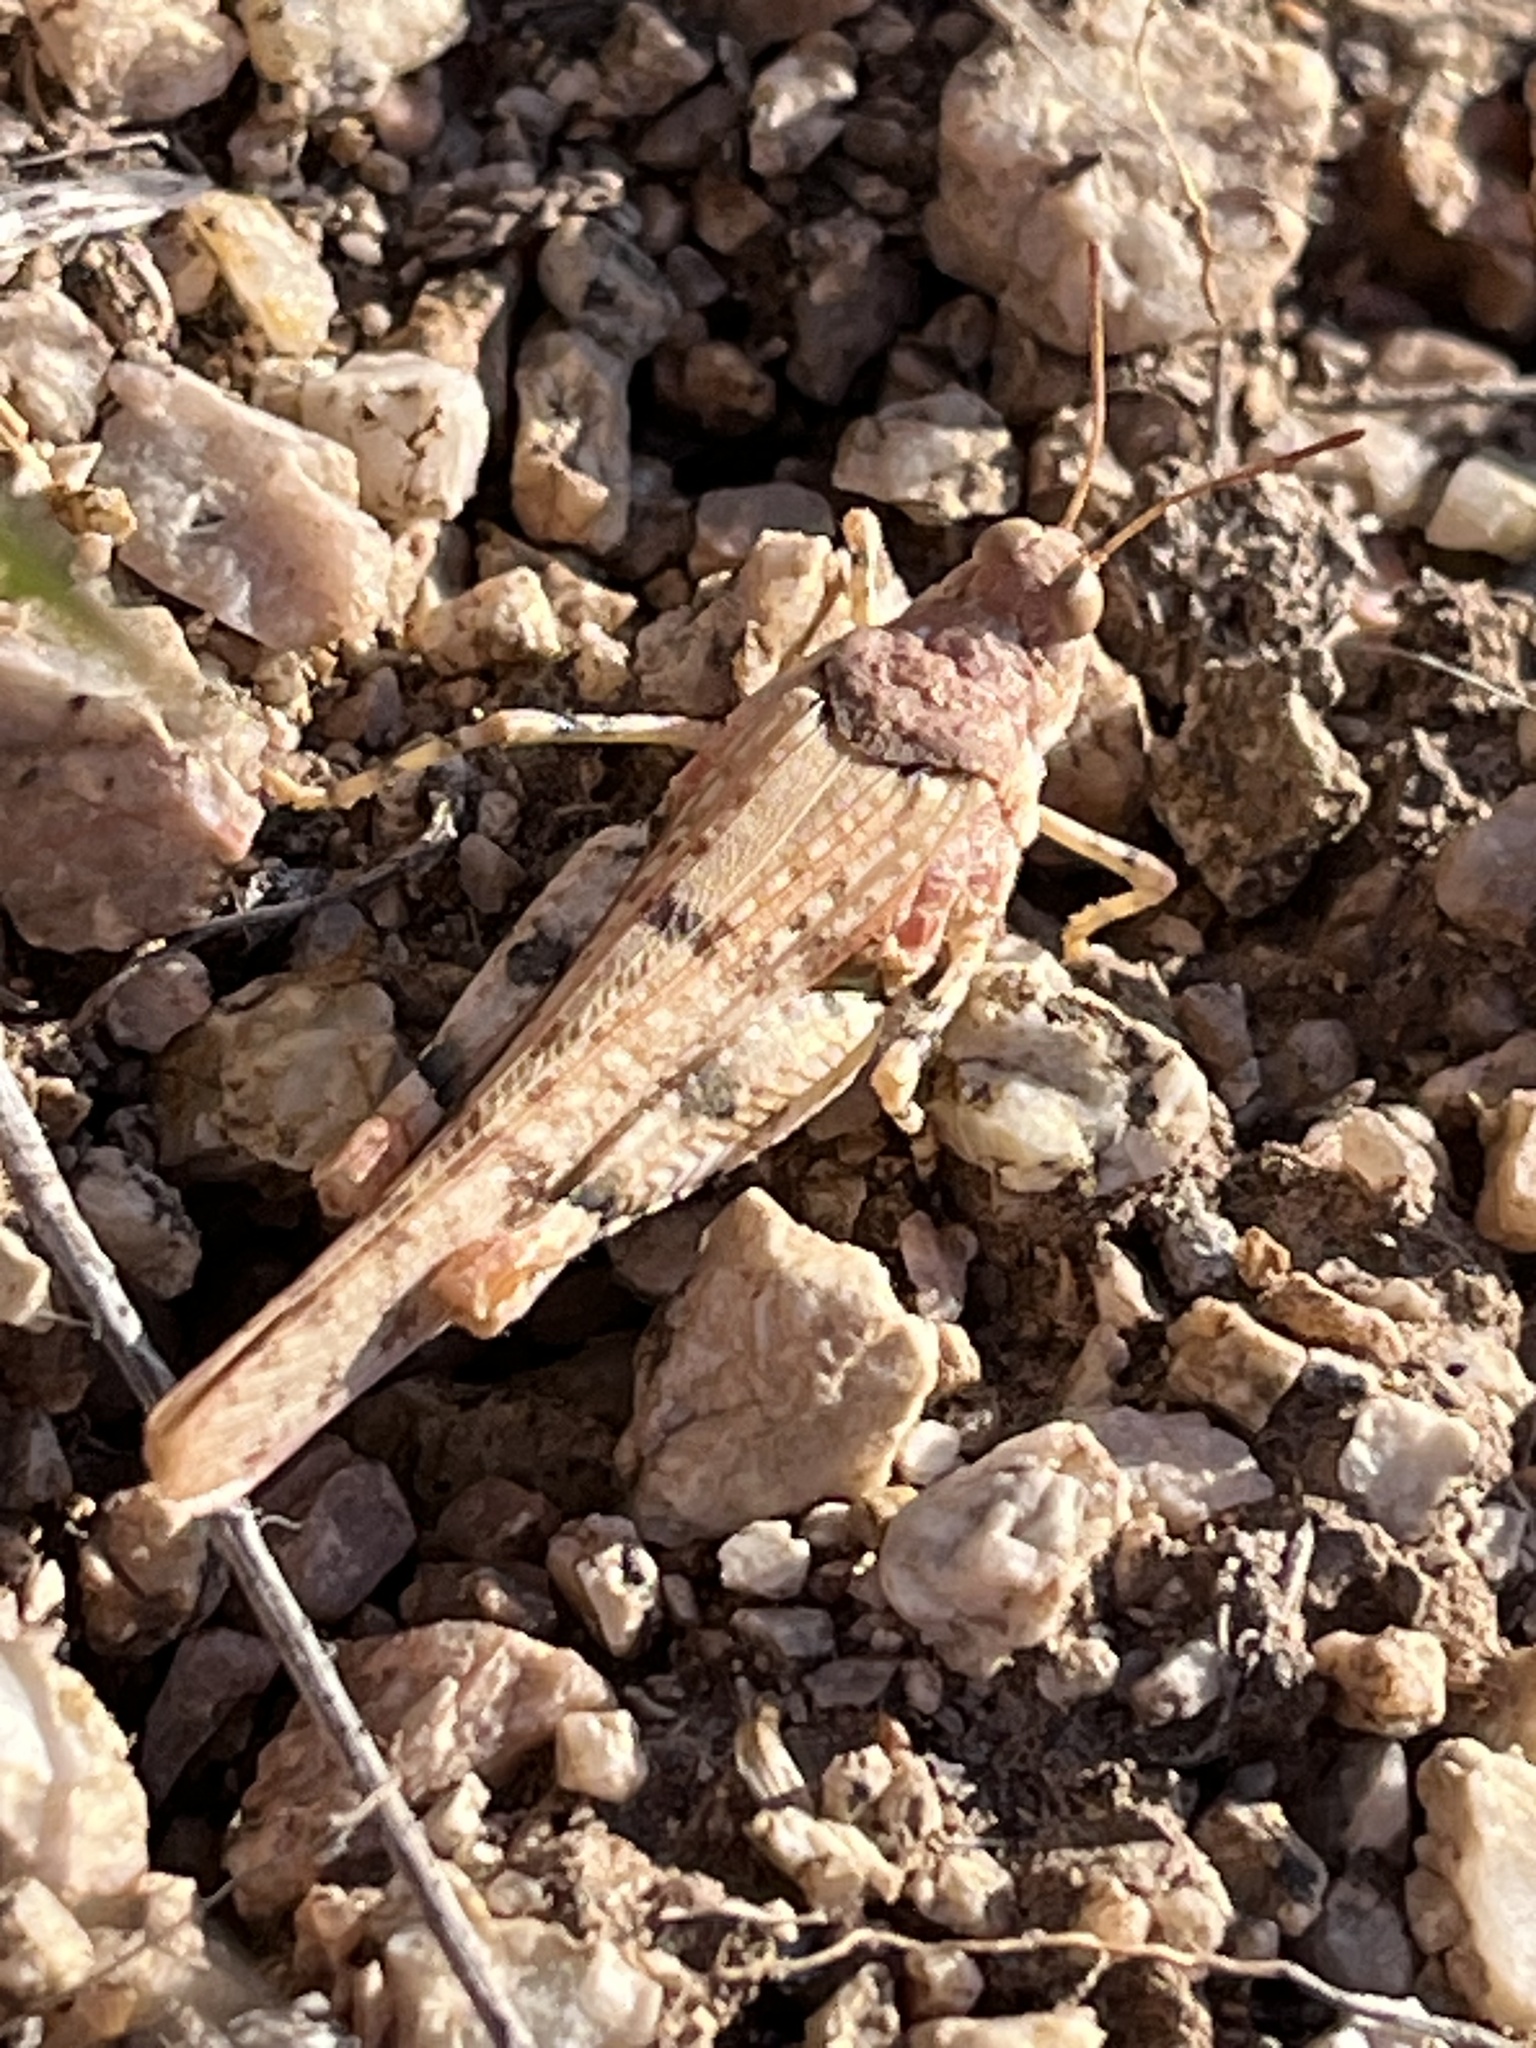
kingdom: Animalia
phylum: Arthropoda
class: Insecta
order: Orthoptera
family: Acrididae
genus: Cibolacris
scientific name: Cibolacris parviceps
